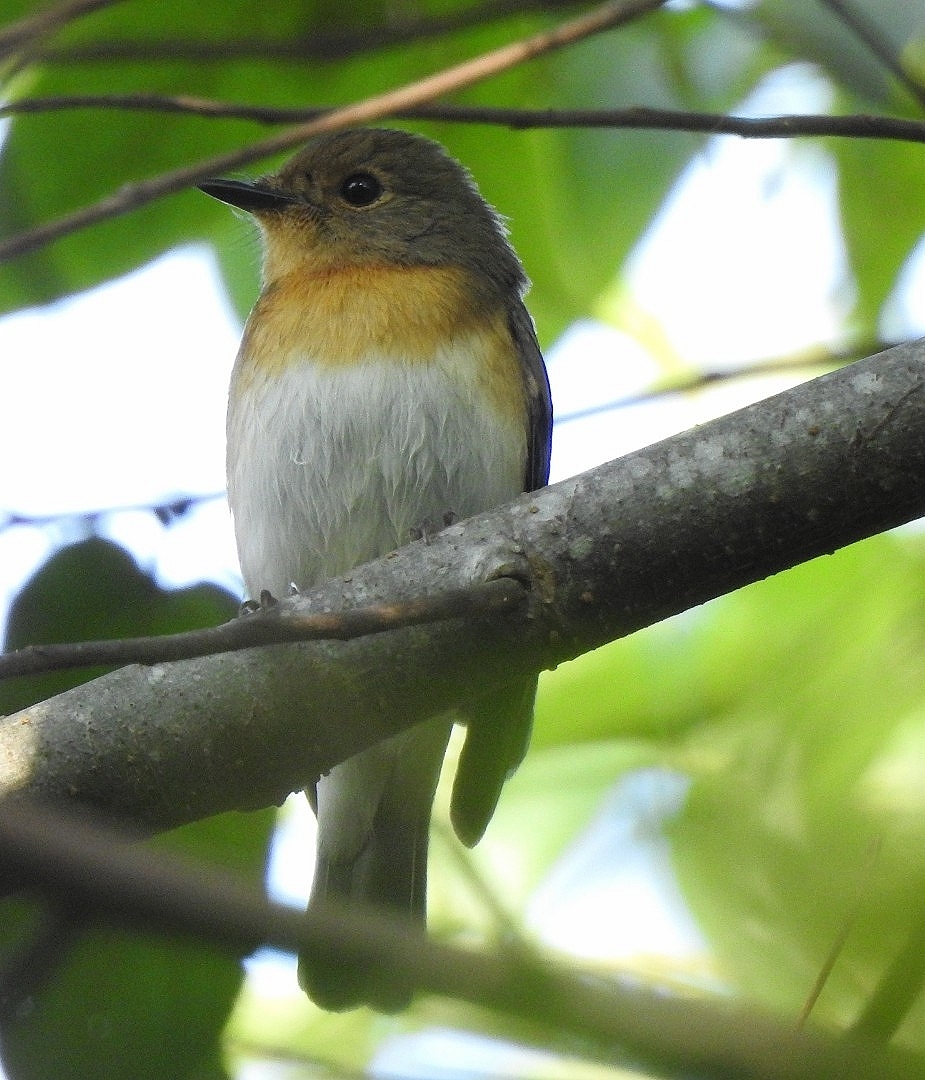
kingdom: Animalia
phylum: Chordata
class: Aves
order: Passeriformes
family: Muscicapidae
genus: Cyornis
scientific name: Cyornis rubeculoides
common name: Blue-throated blue flycatcher
